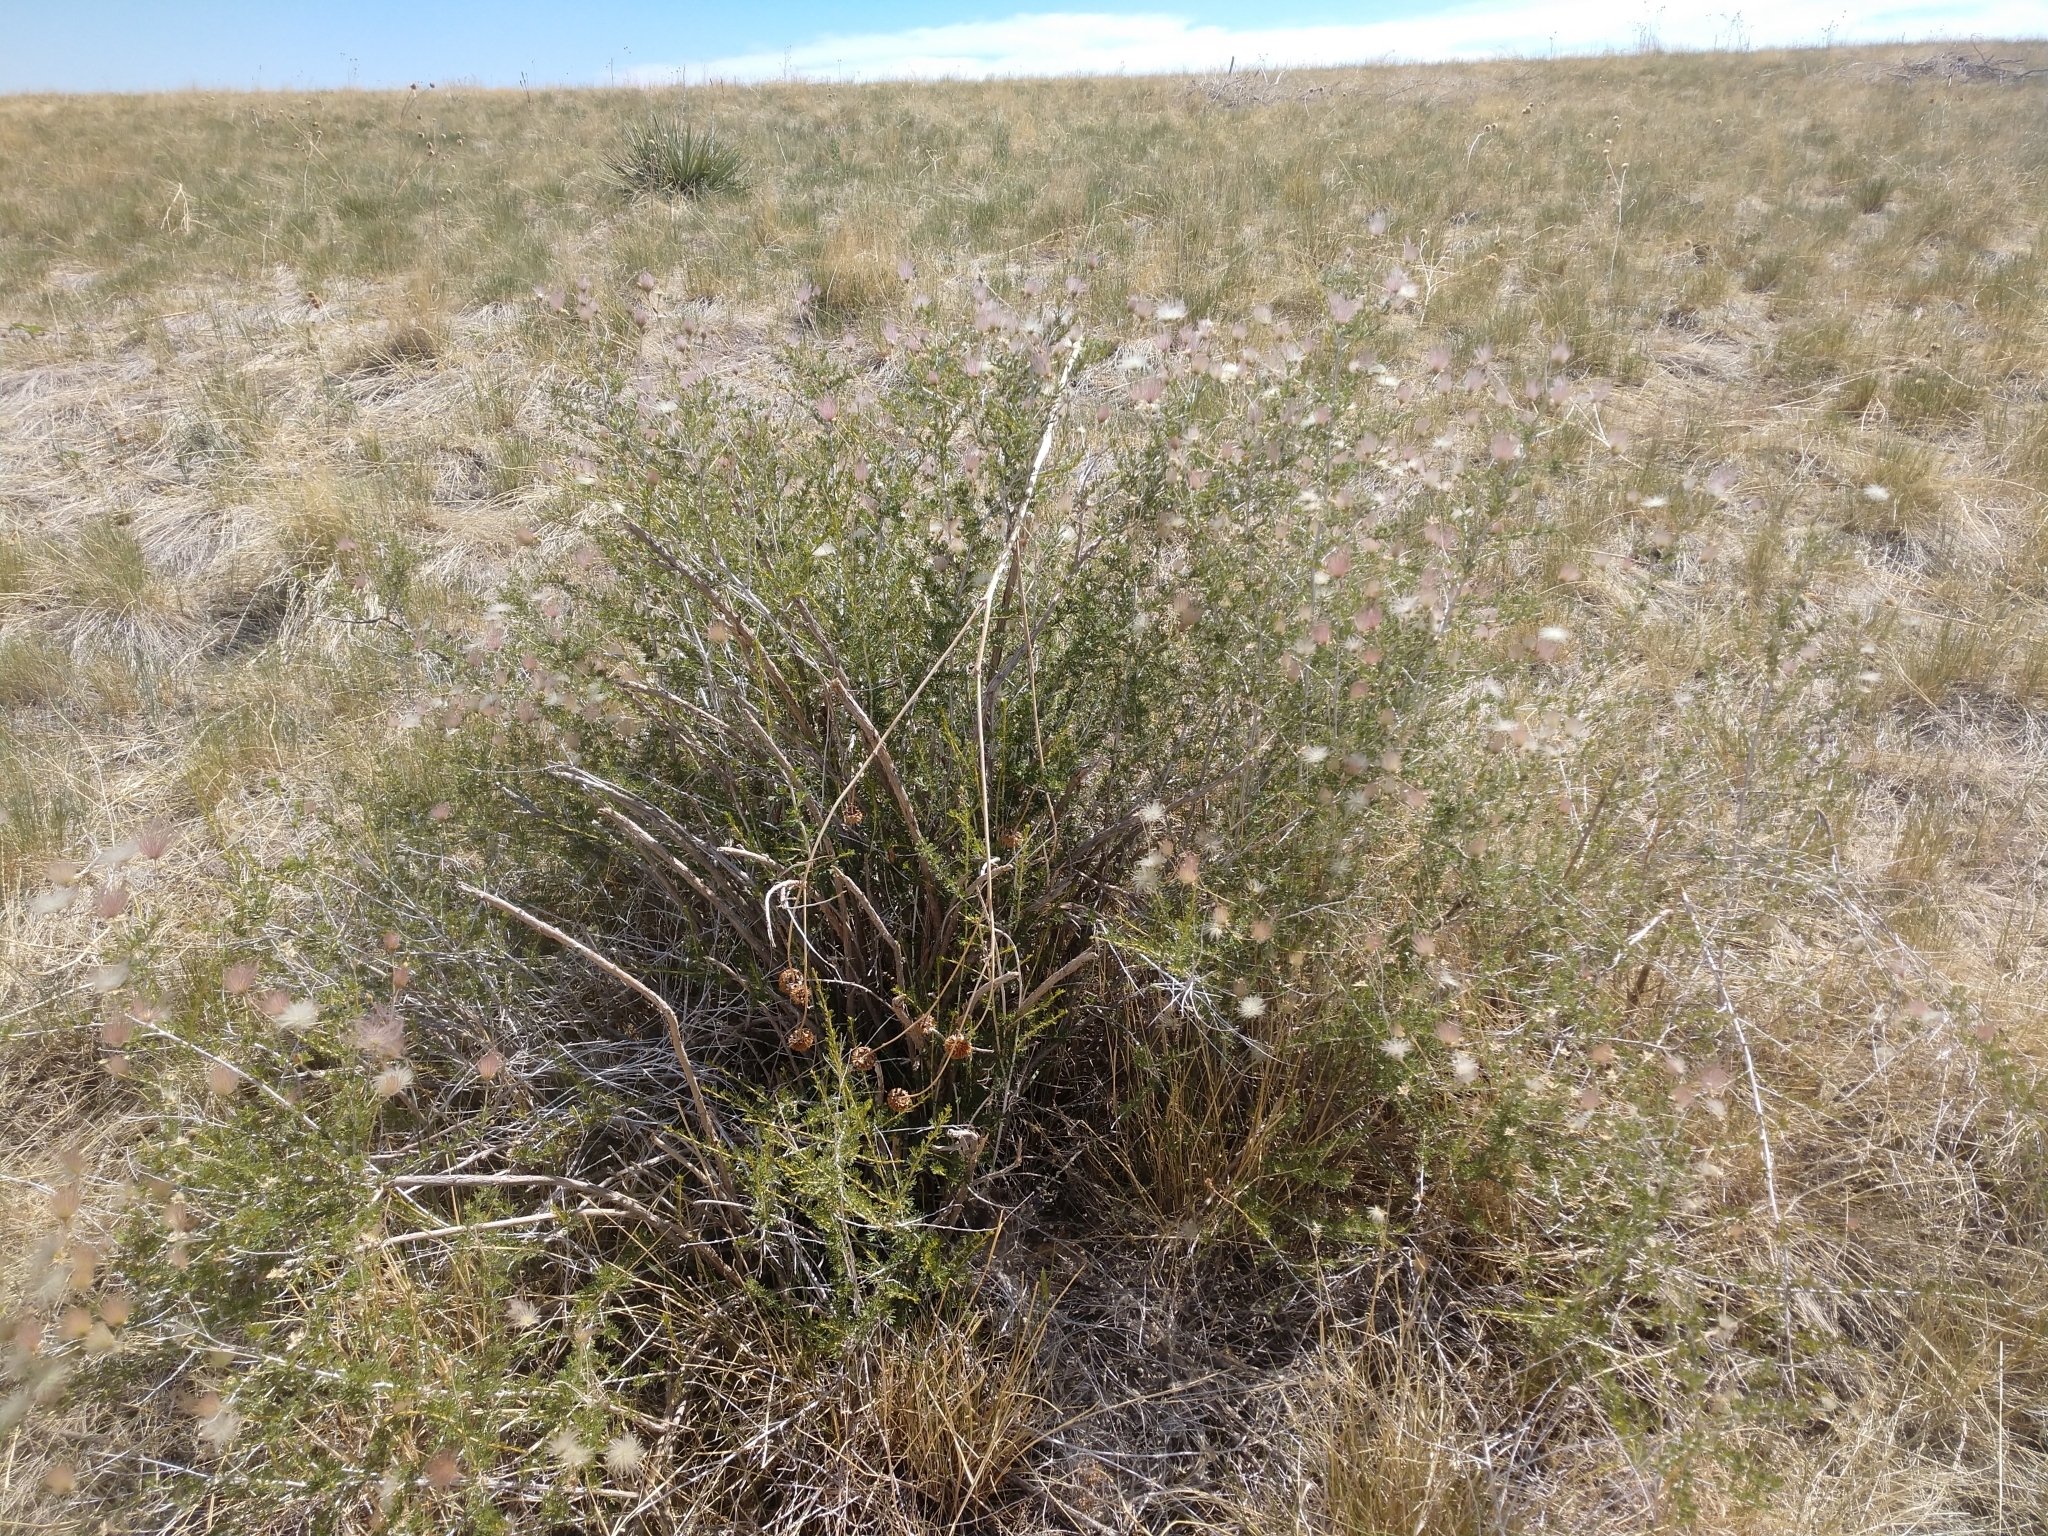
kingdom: Plantae
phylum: Tracheophyta
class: Magnoliopsida
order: Rosales
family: Rosaceae
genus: Fallugia
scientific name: Fallugia paradoxa
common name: Apache-plume
